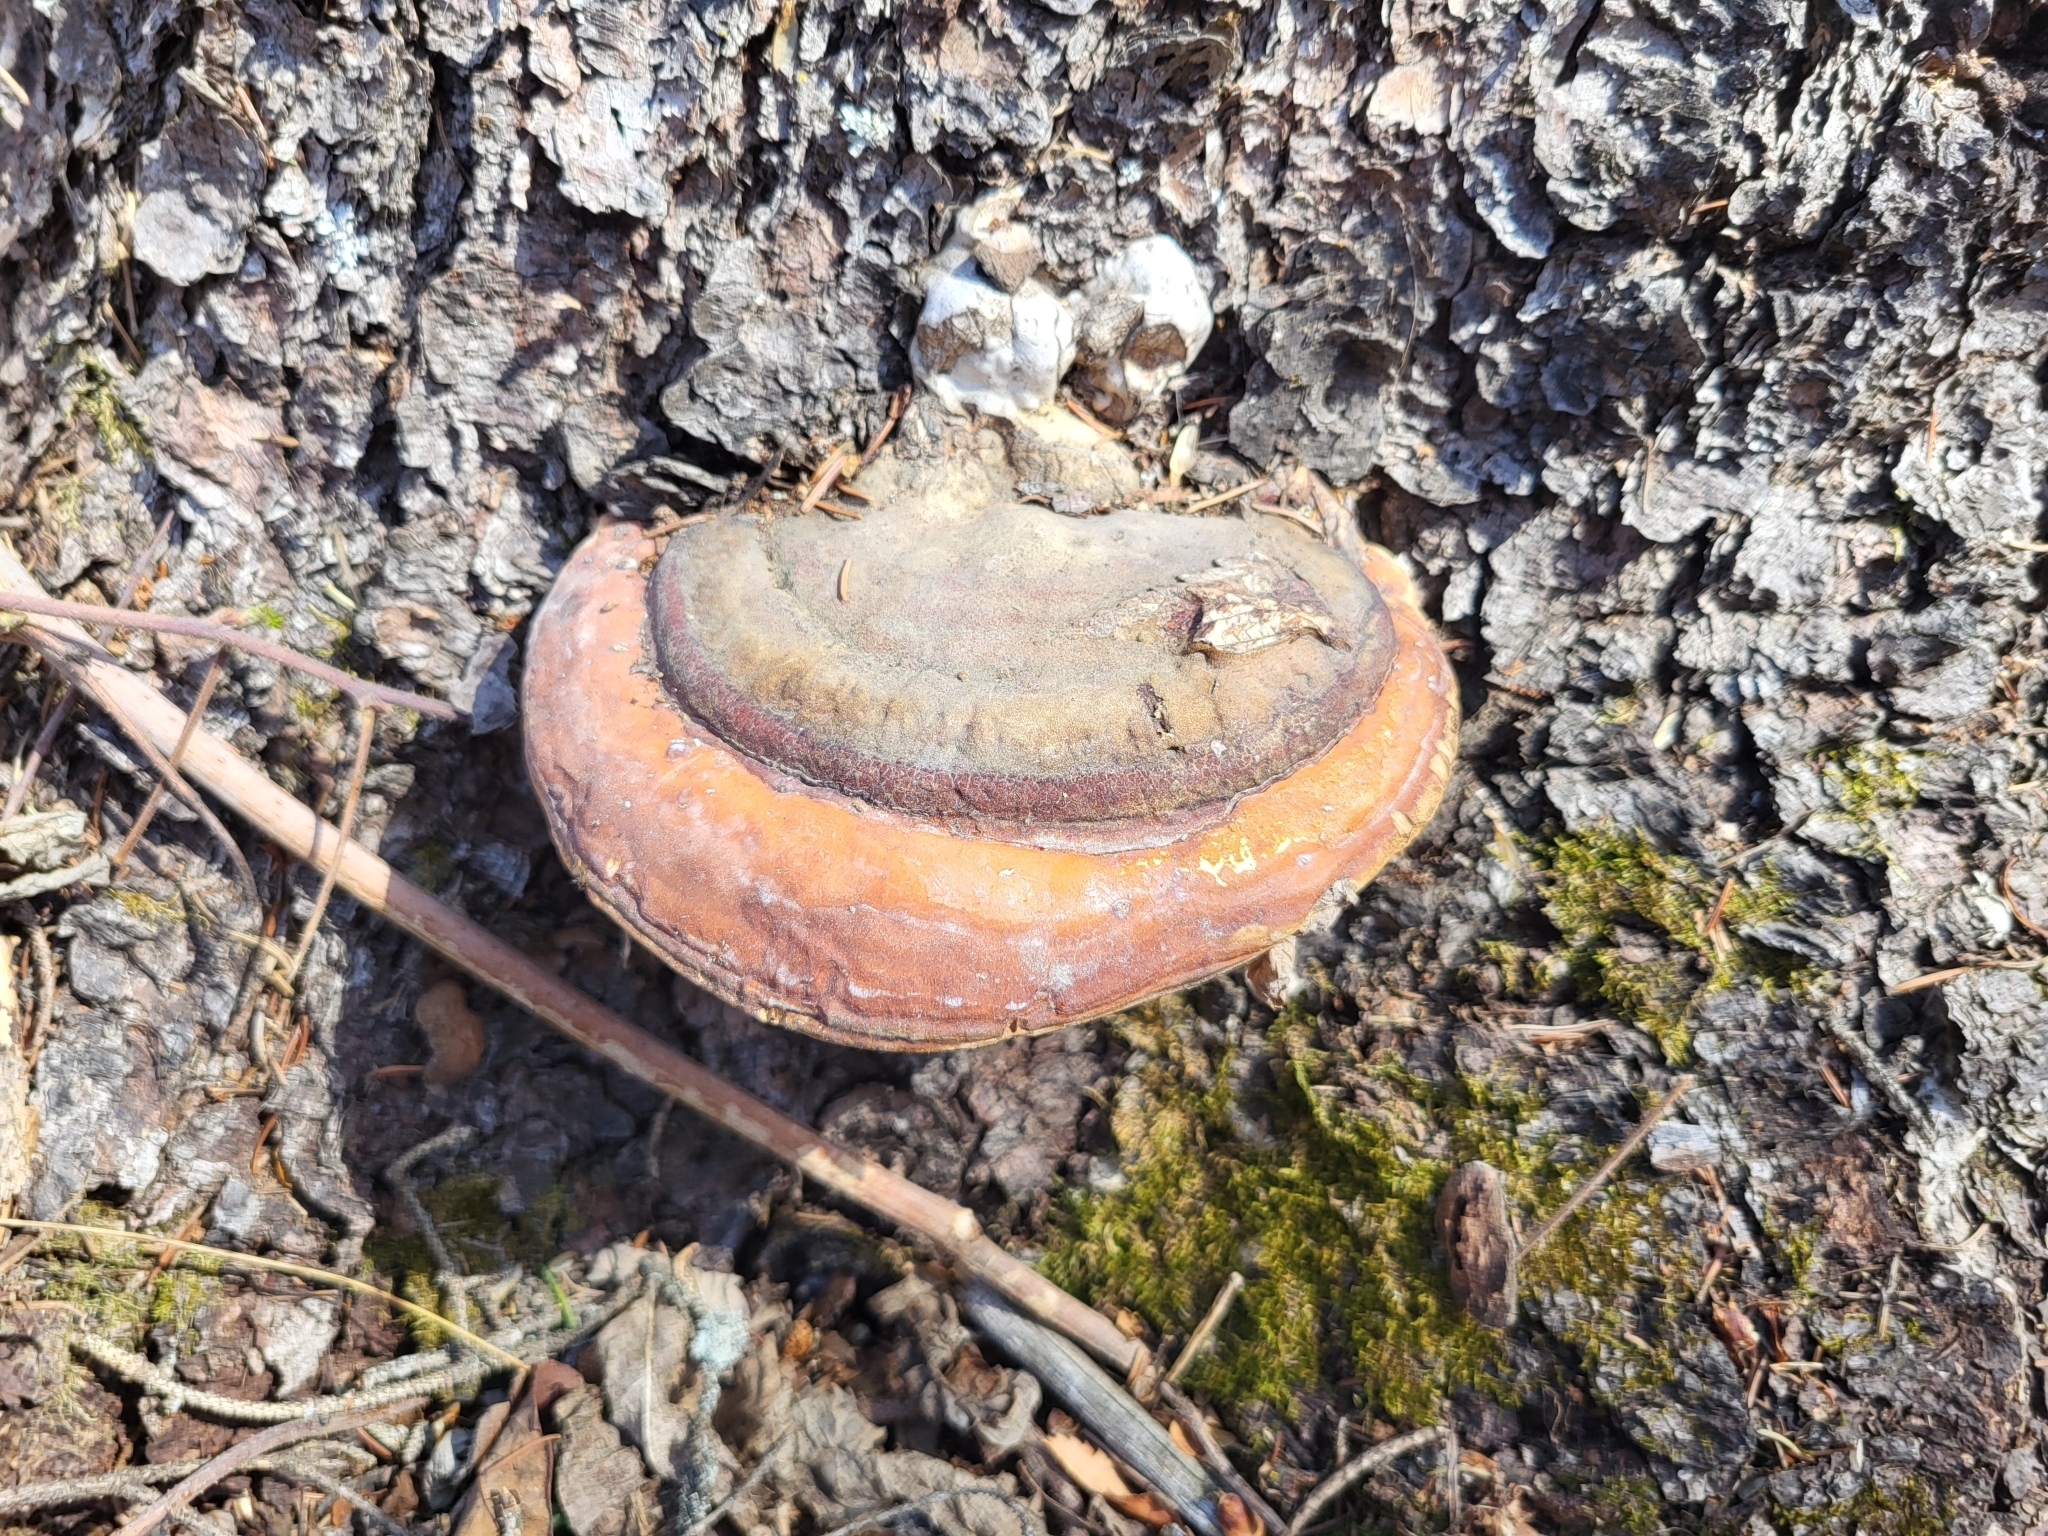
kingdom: Fungi
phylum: Basidiomycota
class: Agaricomycetes
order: Polyporales
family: Fomitopsidaceae
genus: Fomitopsis
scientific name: Fomitopsis mounceae
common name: Northern red belt
